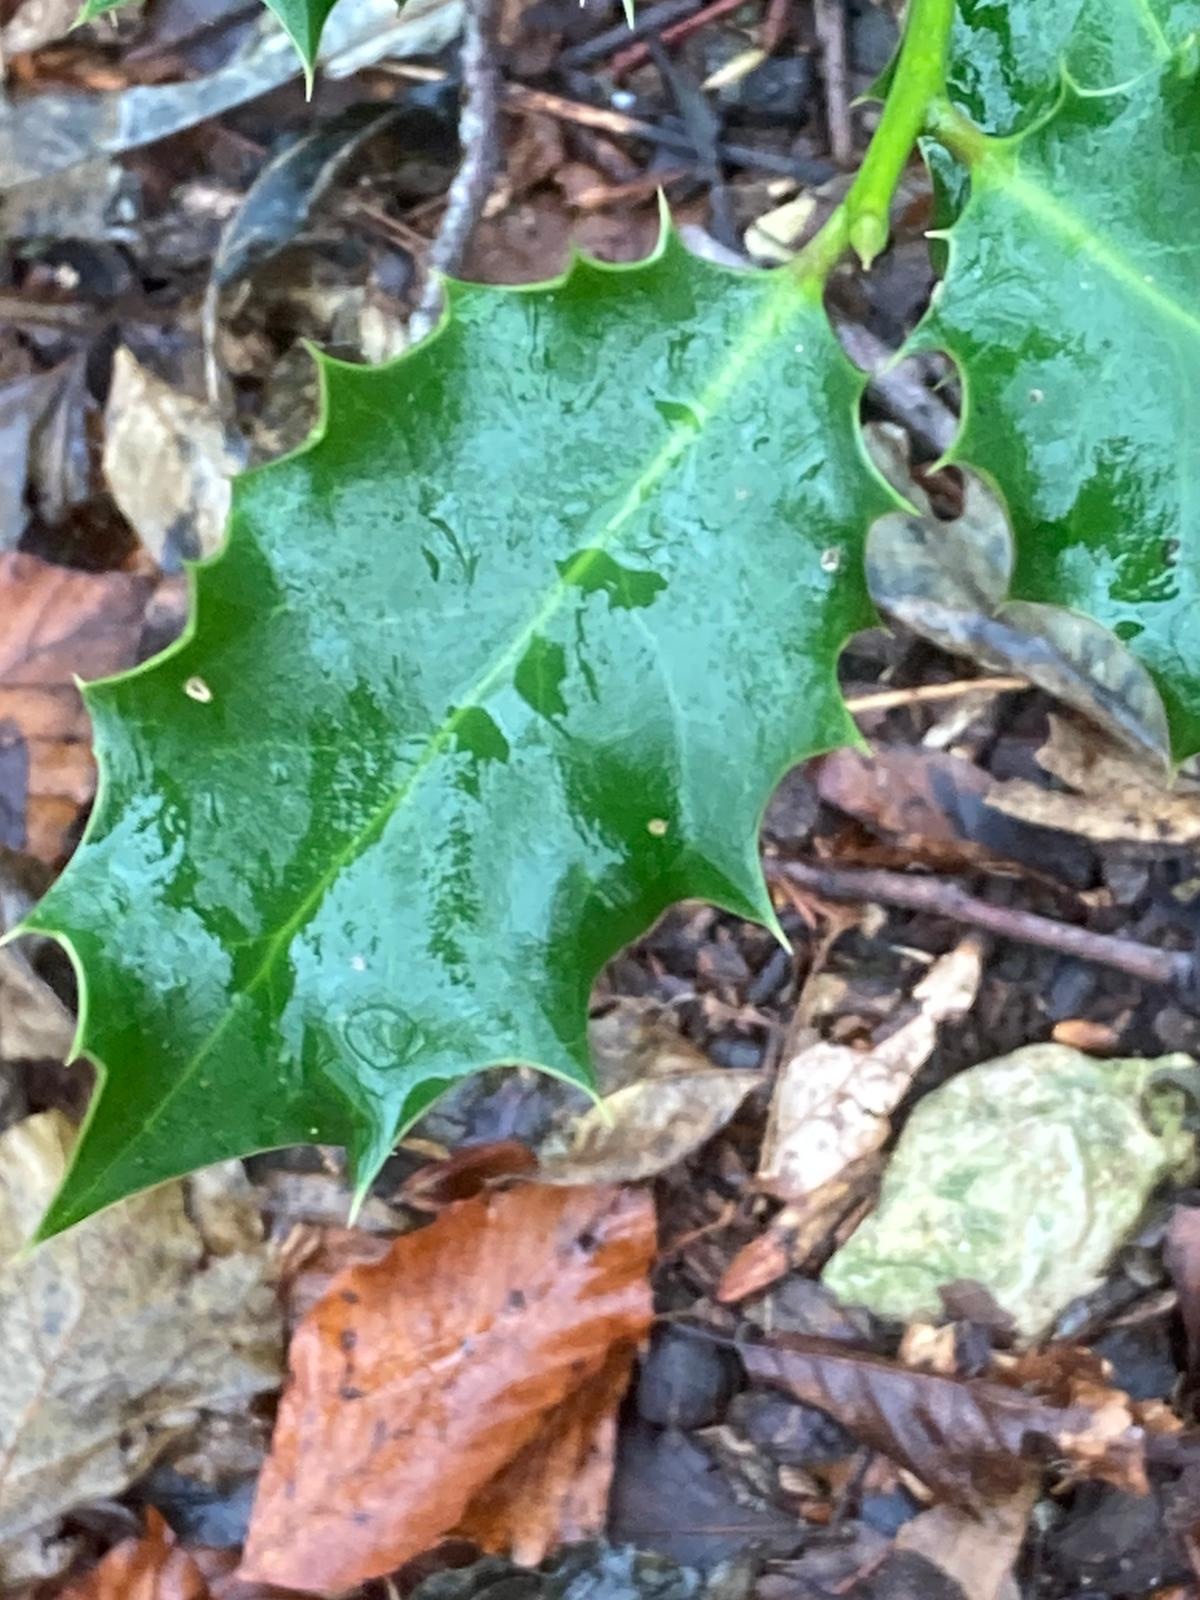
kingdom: Plantae
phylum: Tracheophyta
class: Magnoliopsida
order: Aquifoliales
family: Aquifoliaceae
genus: Ilex
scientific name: Ilex aquifolium
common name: English holly
